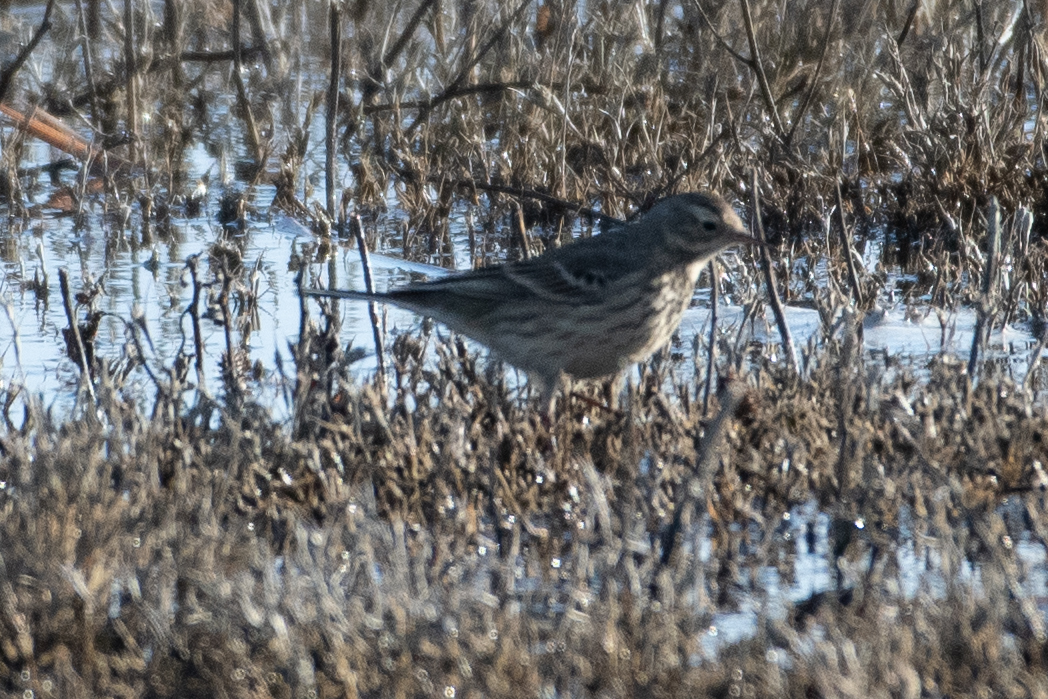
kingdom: Animalia
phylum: Chordata
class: Aves
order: Passeriformes
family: Motacillidae
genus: Anthus
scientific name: Anthus rubescens
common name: Buff-bellied pipit
